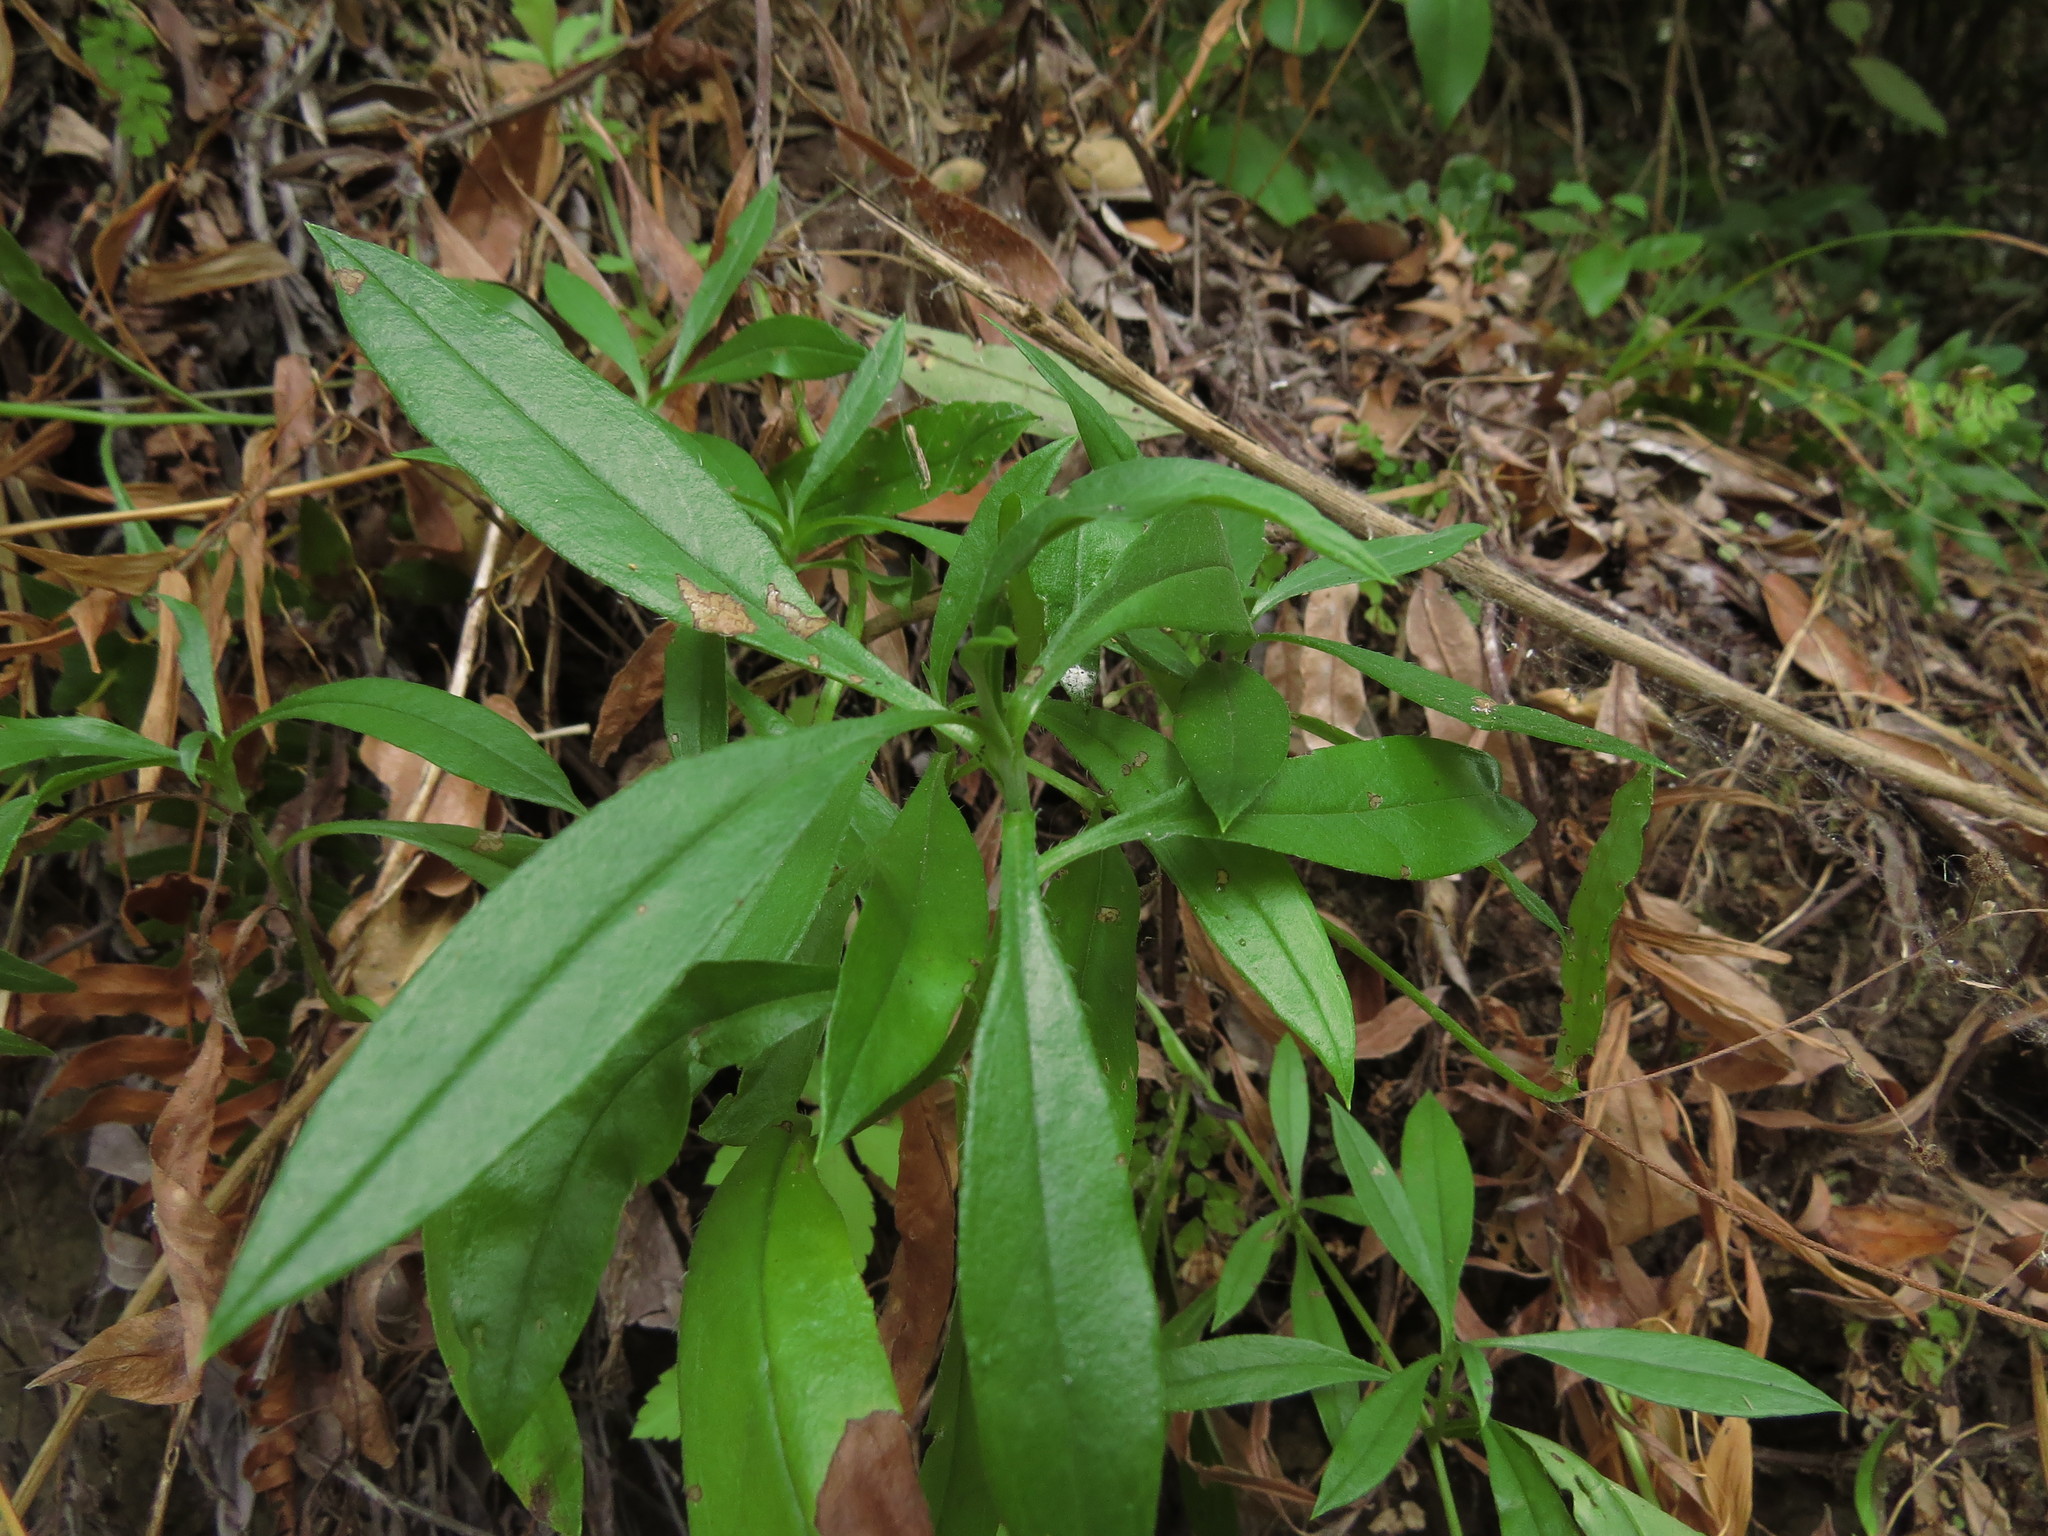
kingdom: Plantae
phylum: Tracheophyta
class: Magnoliopsida
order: Boraginales
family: Boraginaceae
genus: Selkirkia
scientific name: Selkirkia pauciflora
